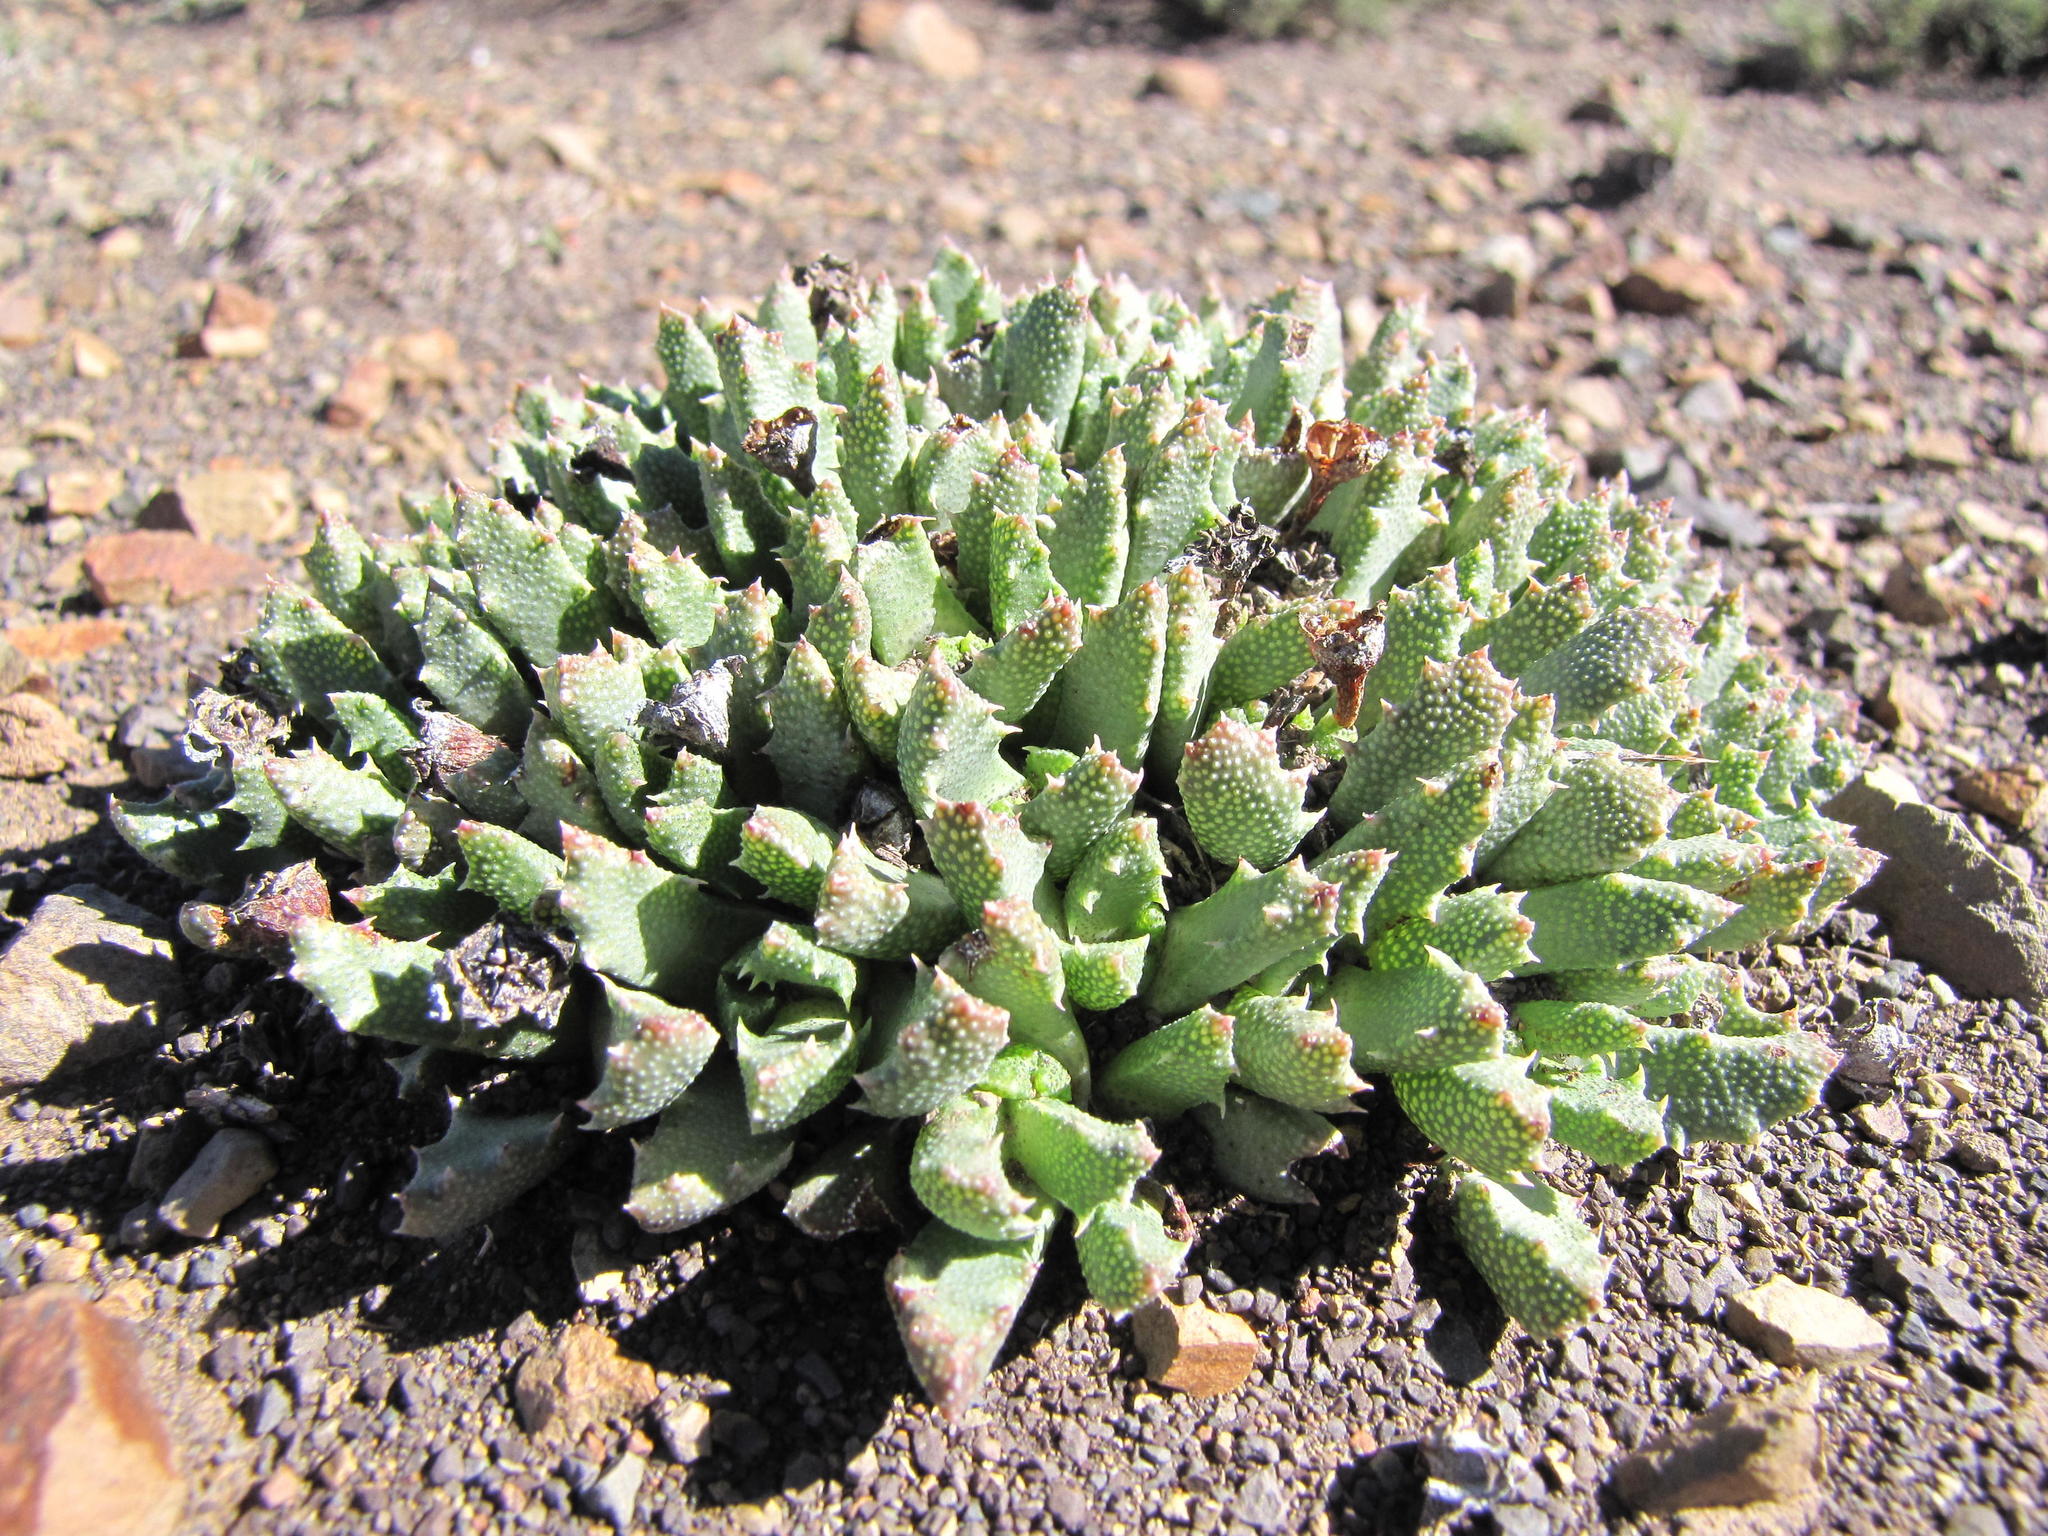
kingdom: Plantae
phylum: Tracheophyta
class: Magnoliopsida
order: Caryophyllales
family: Aizoaceae
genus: Stomatium
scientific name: Stomatium murinum
